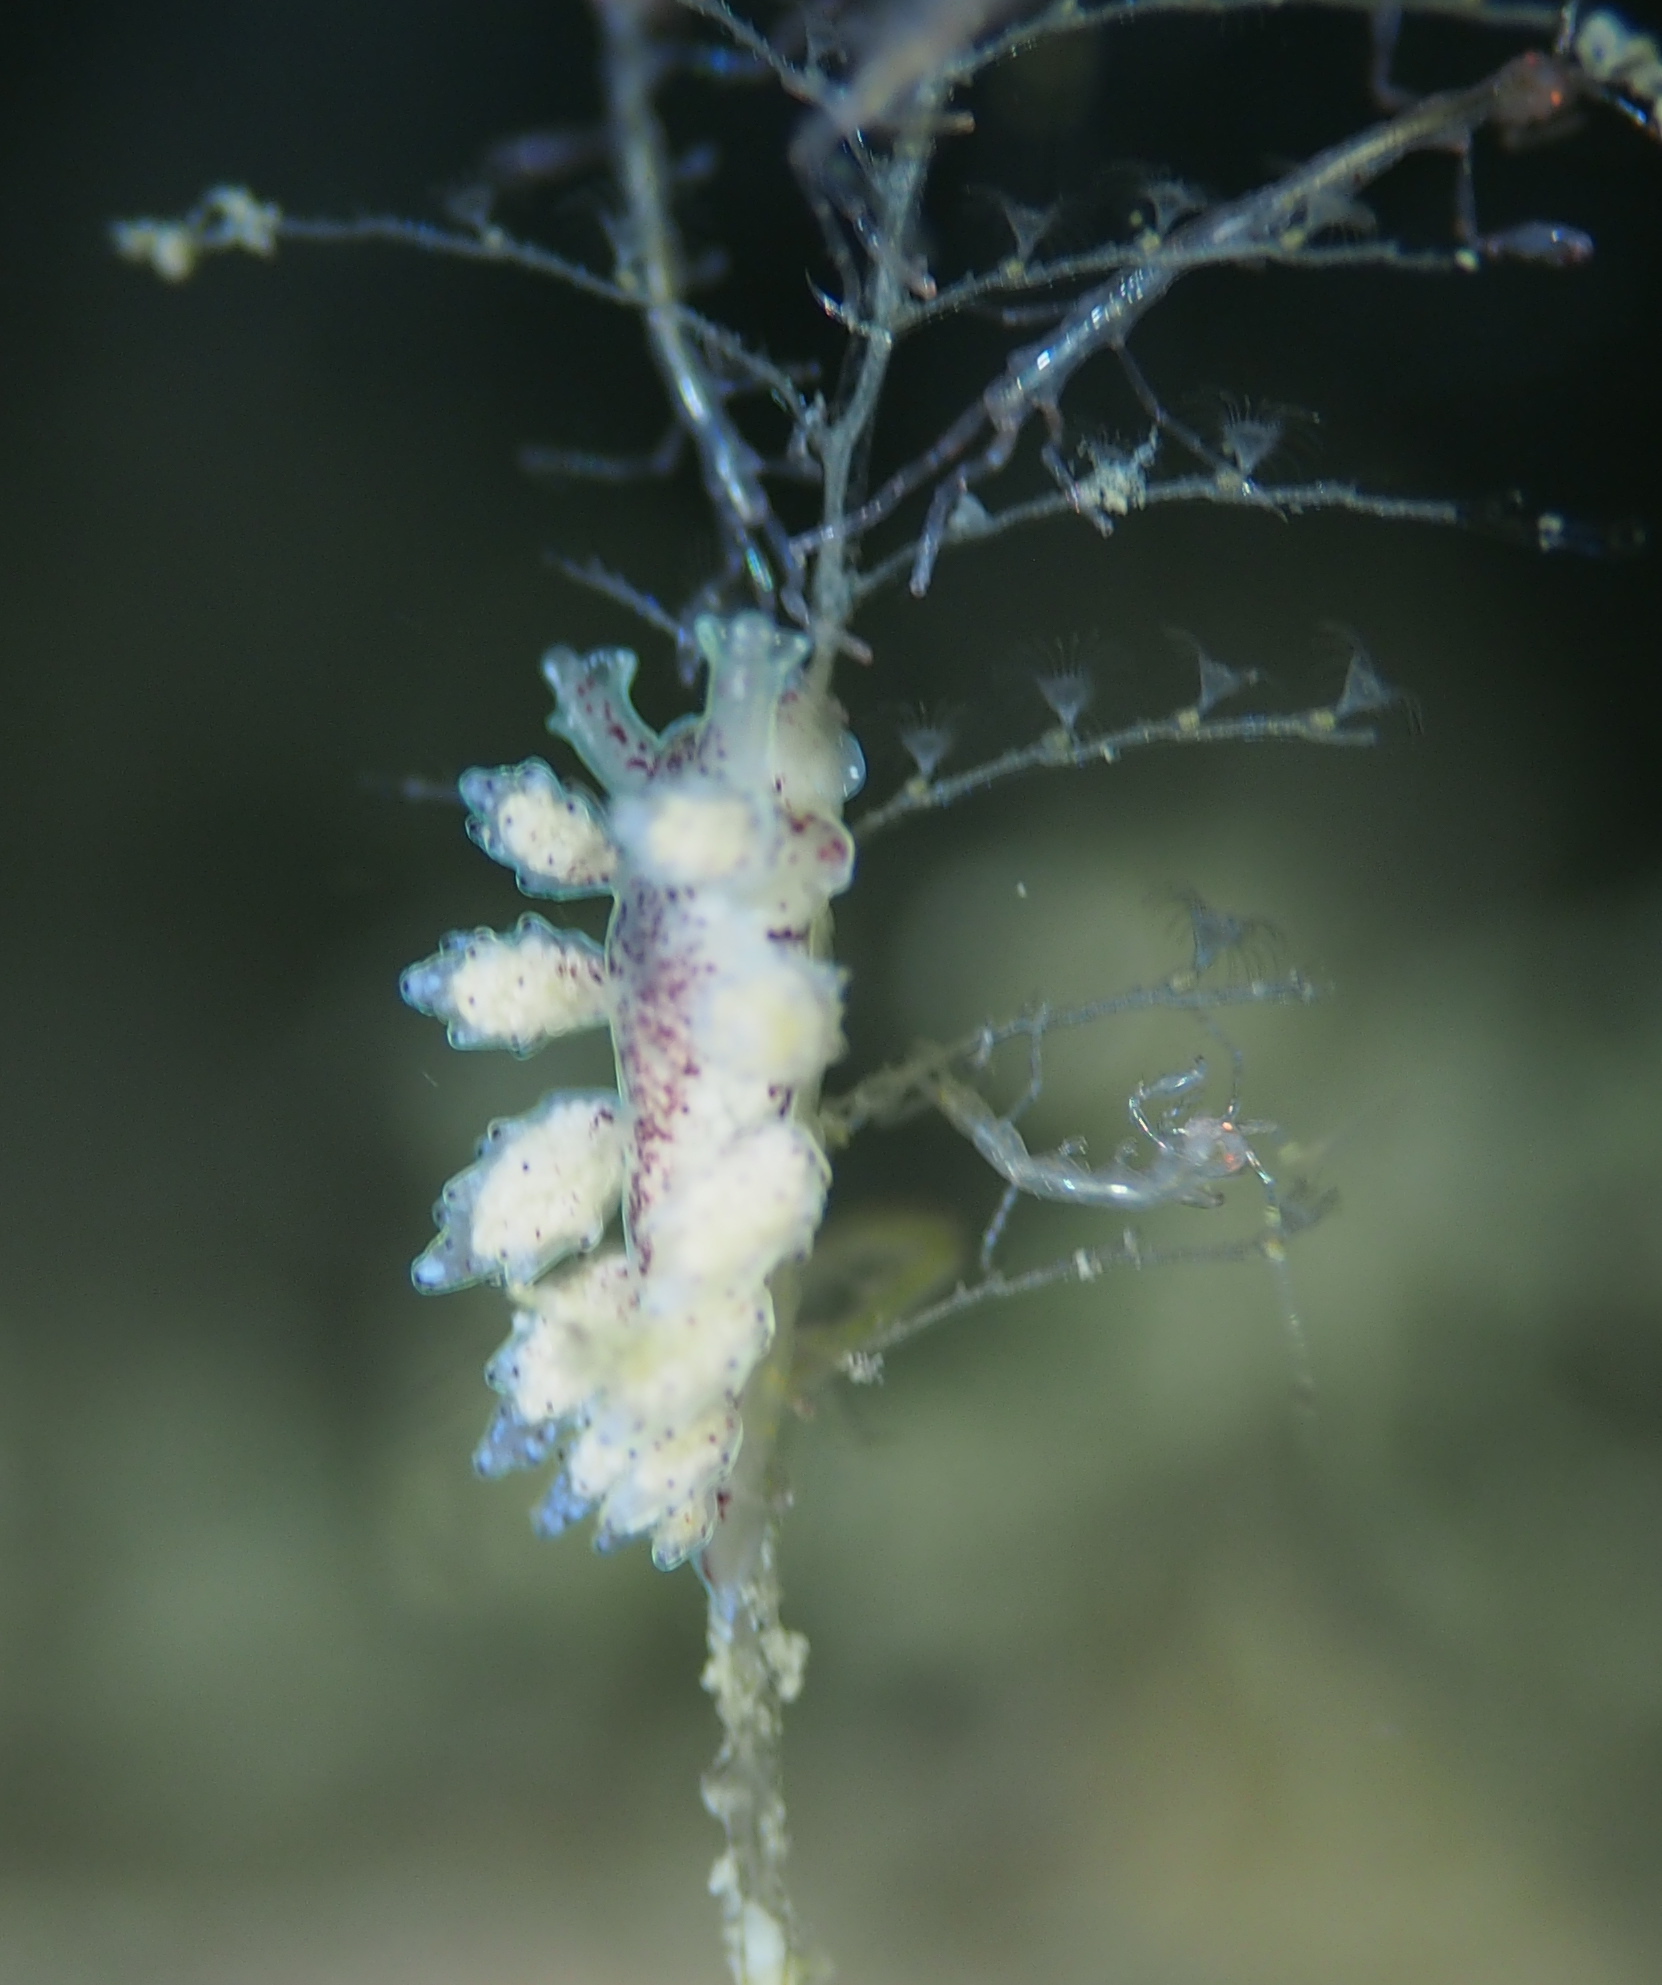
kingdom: Animalia
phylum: Mollusca
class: Gastropoda
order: Nudibranchia
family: Dotidae
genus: Doto
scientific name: Doto dunnei
